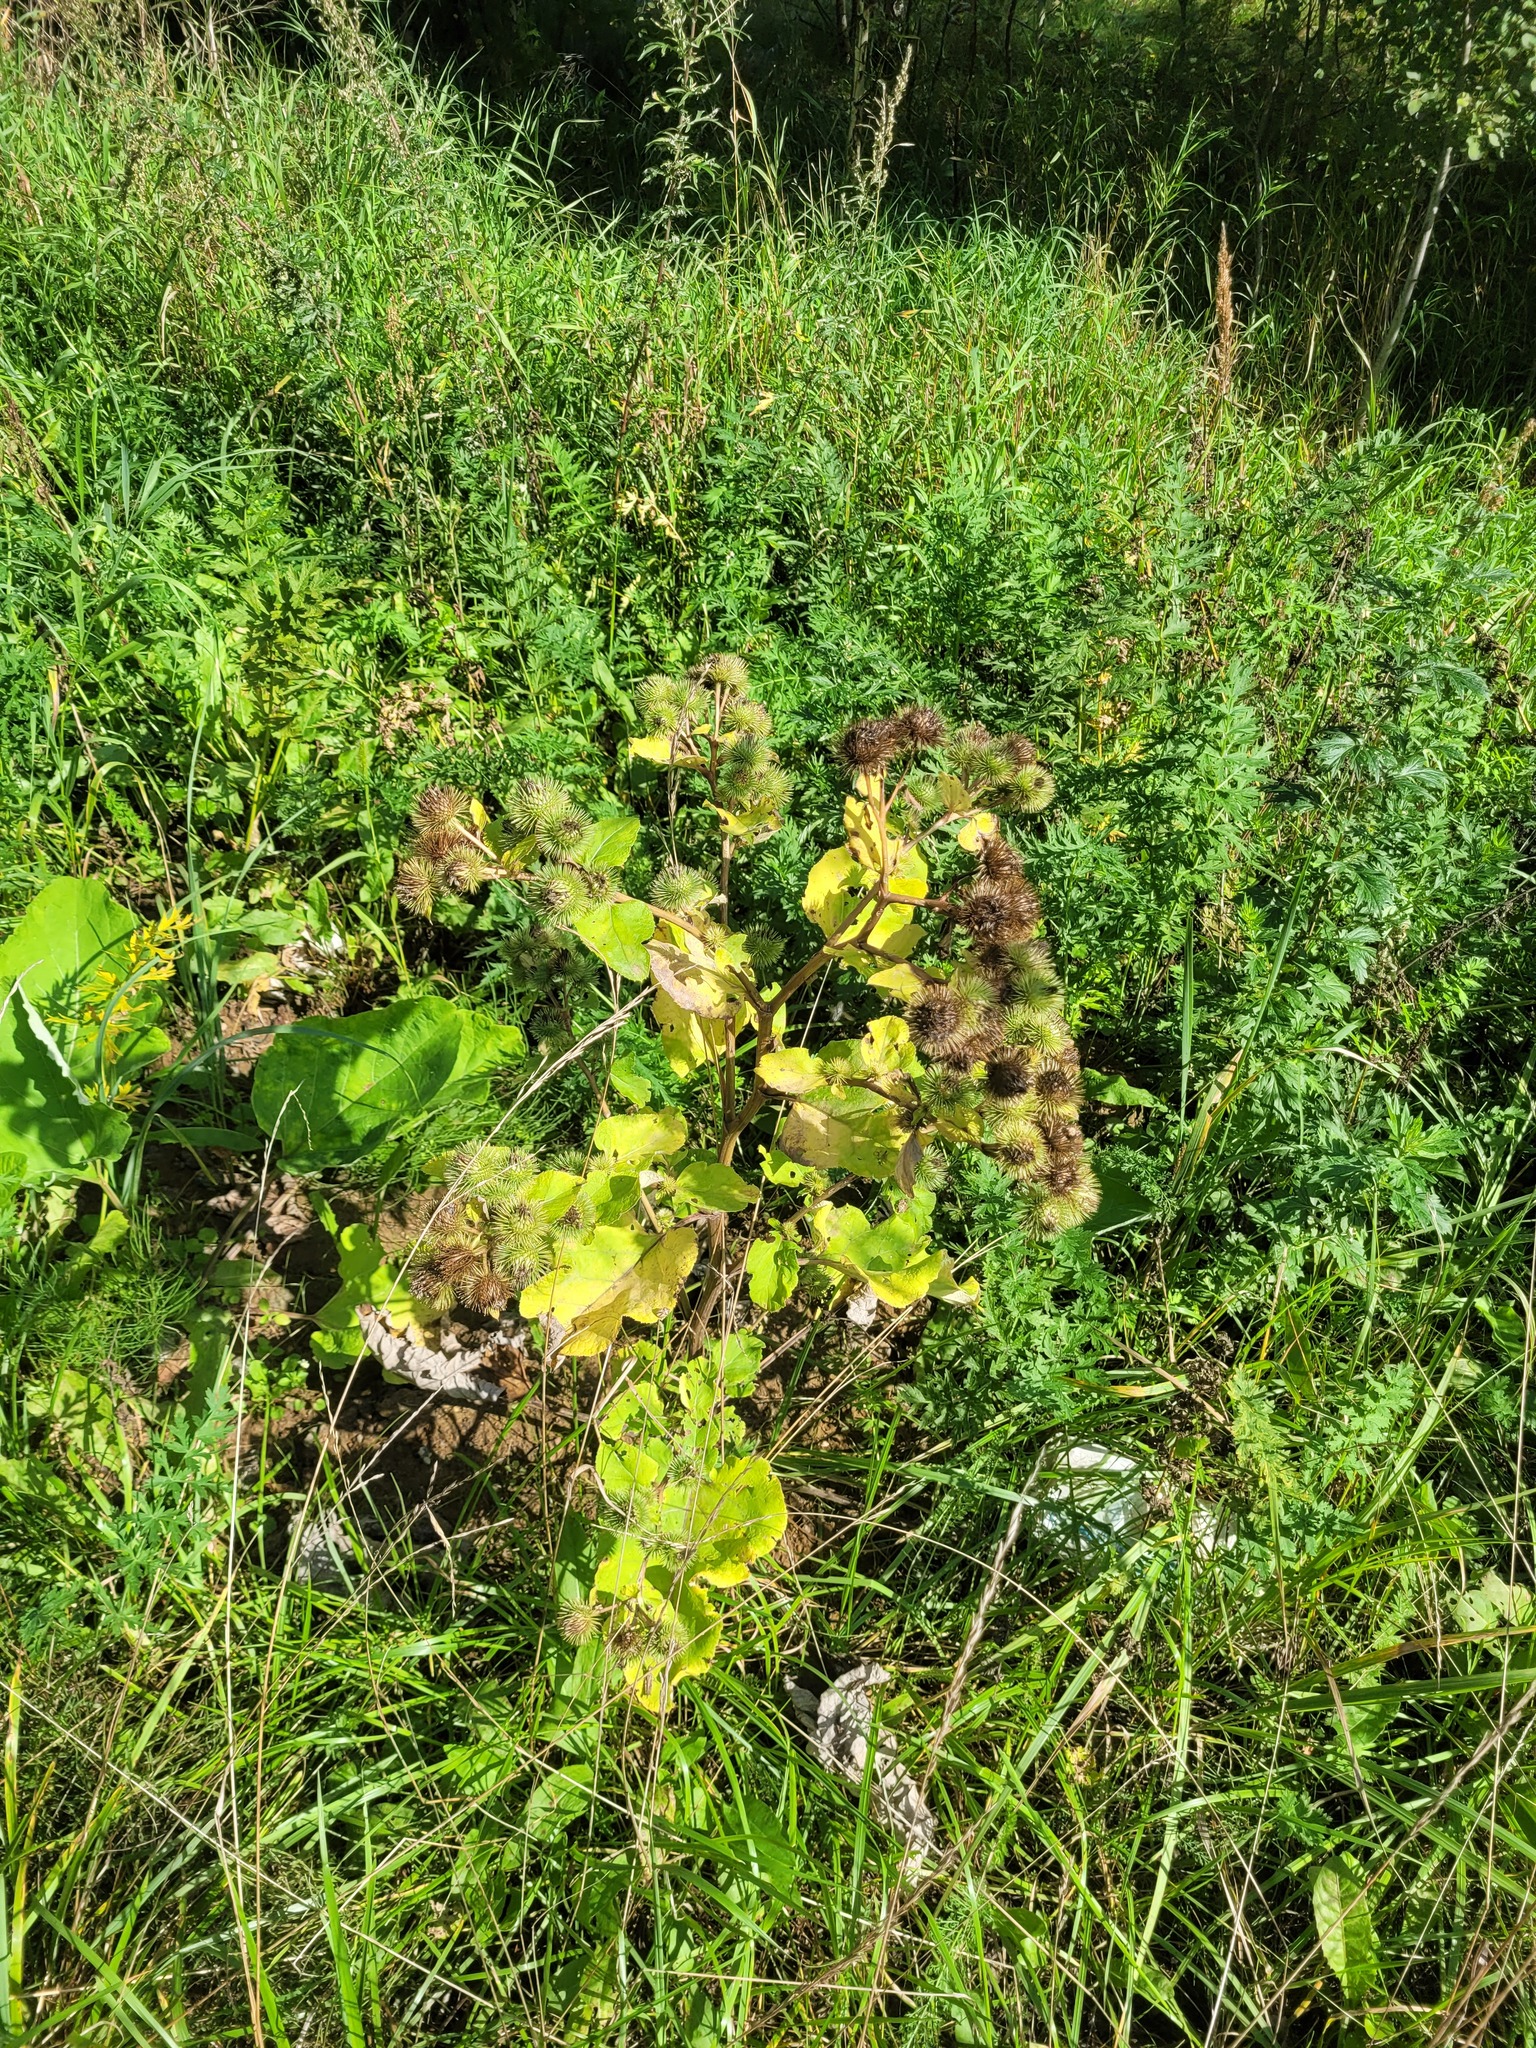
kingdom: Plantae
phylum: Tracheophyta
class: Magnoliopsida
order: Asterales
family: Asteraceae
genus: Arctium
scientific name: Arctium lappa
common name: Greater burdock
